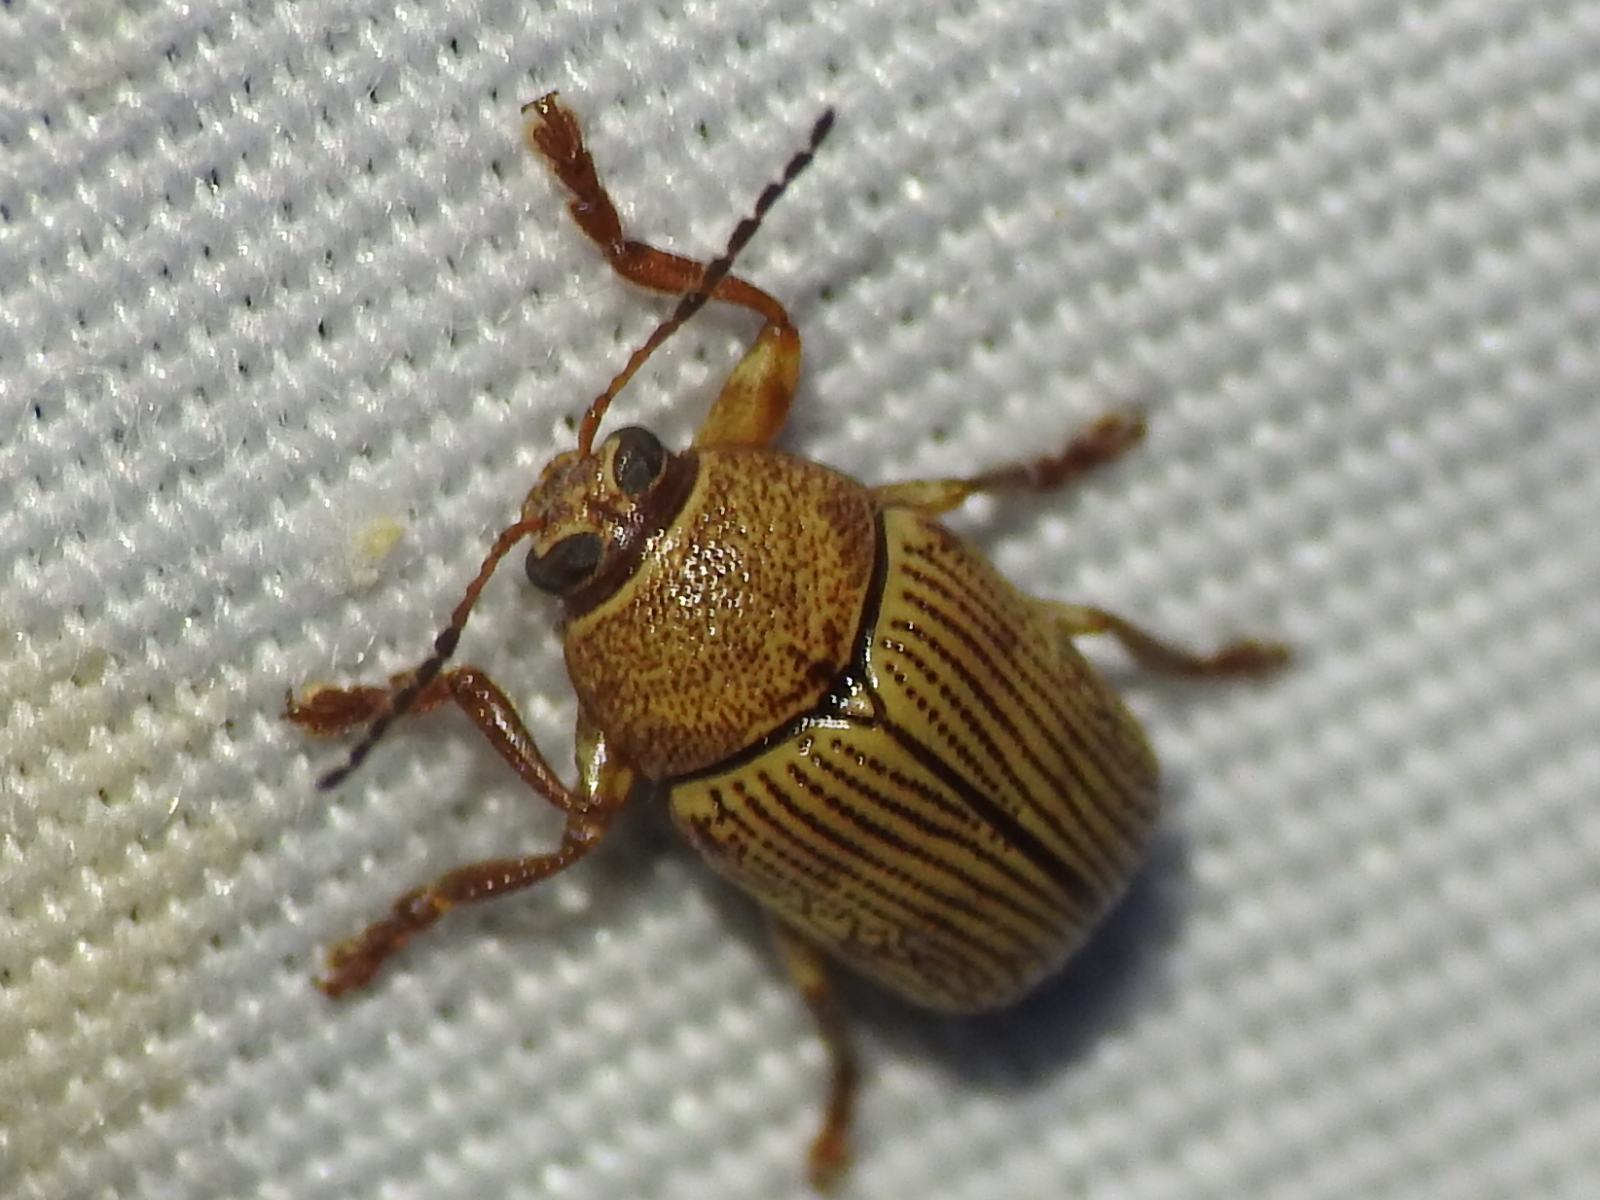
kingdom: Animalia
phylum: Arthropoda
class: Insecta
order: Coleoptera
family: Chrysomelidae
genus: Cryptocephalus
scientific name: Cryptocephalus implacidus
